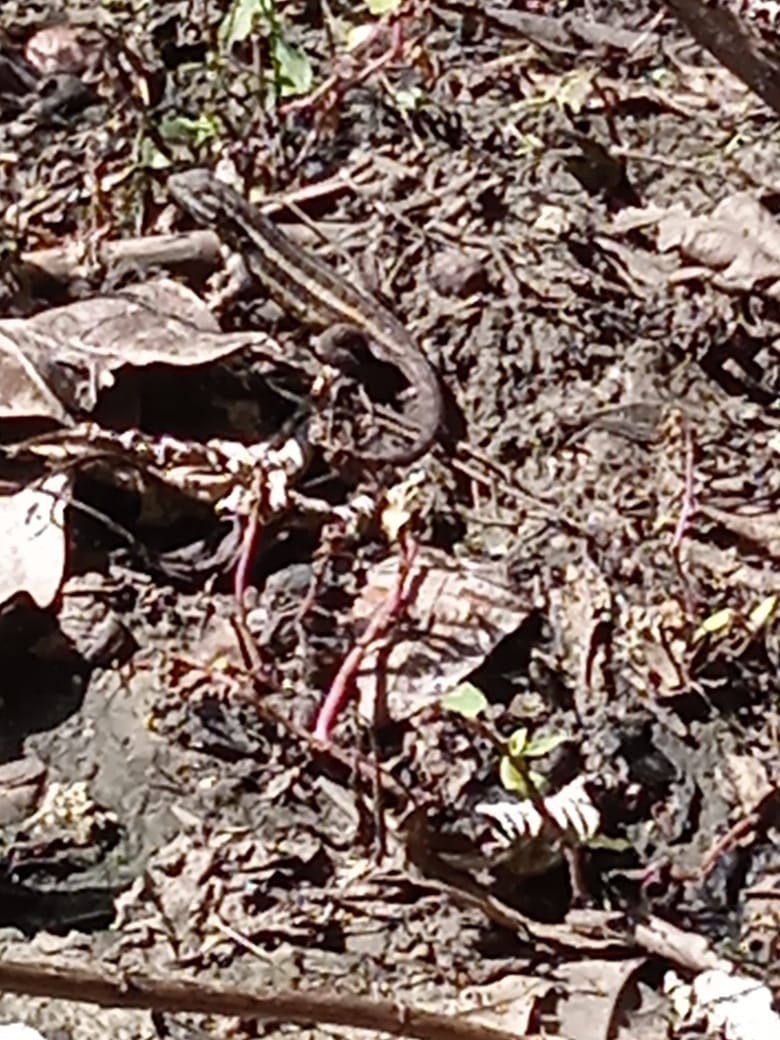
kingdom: Animalia
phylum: Chordata
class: Squamata
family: Phrynosomatidae
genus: Sceloporus
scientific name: Sceloporus variabilis
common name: Rosebelly lizard
